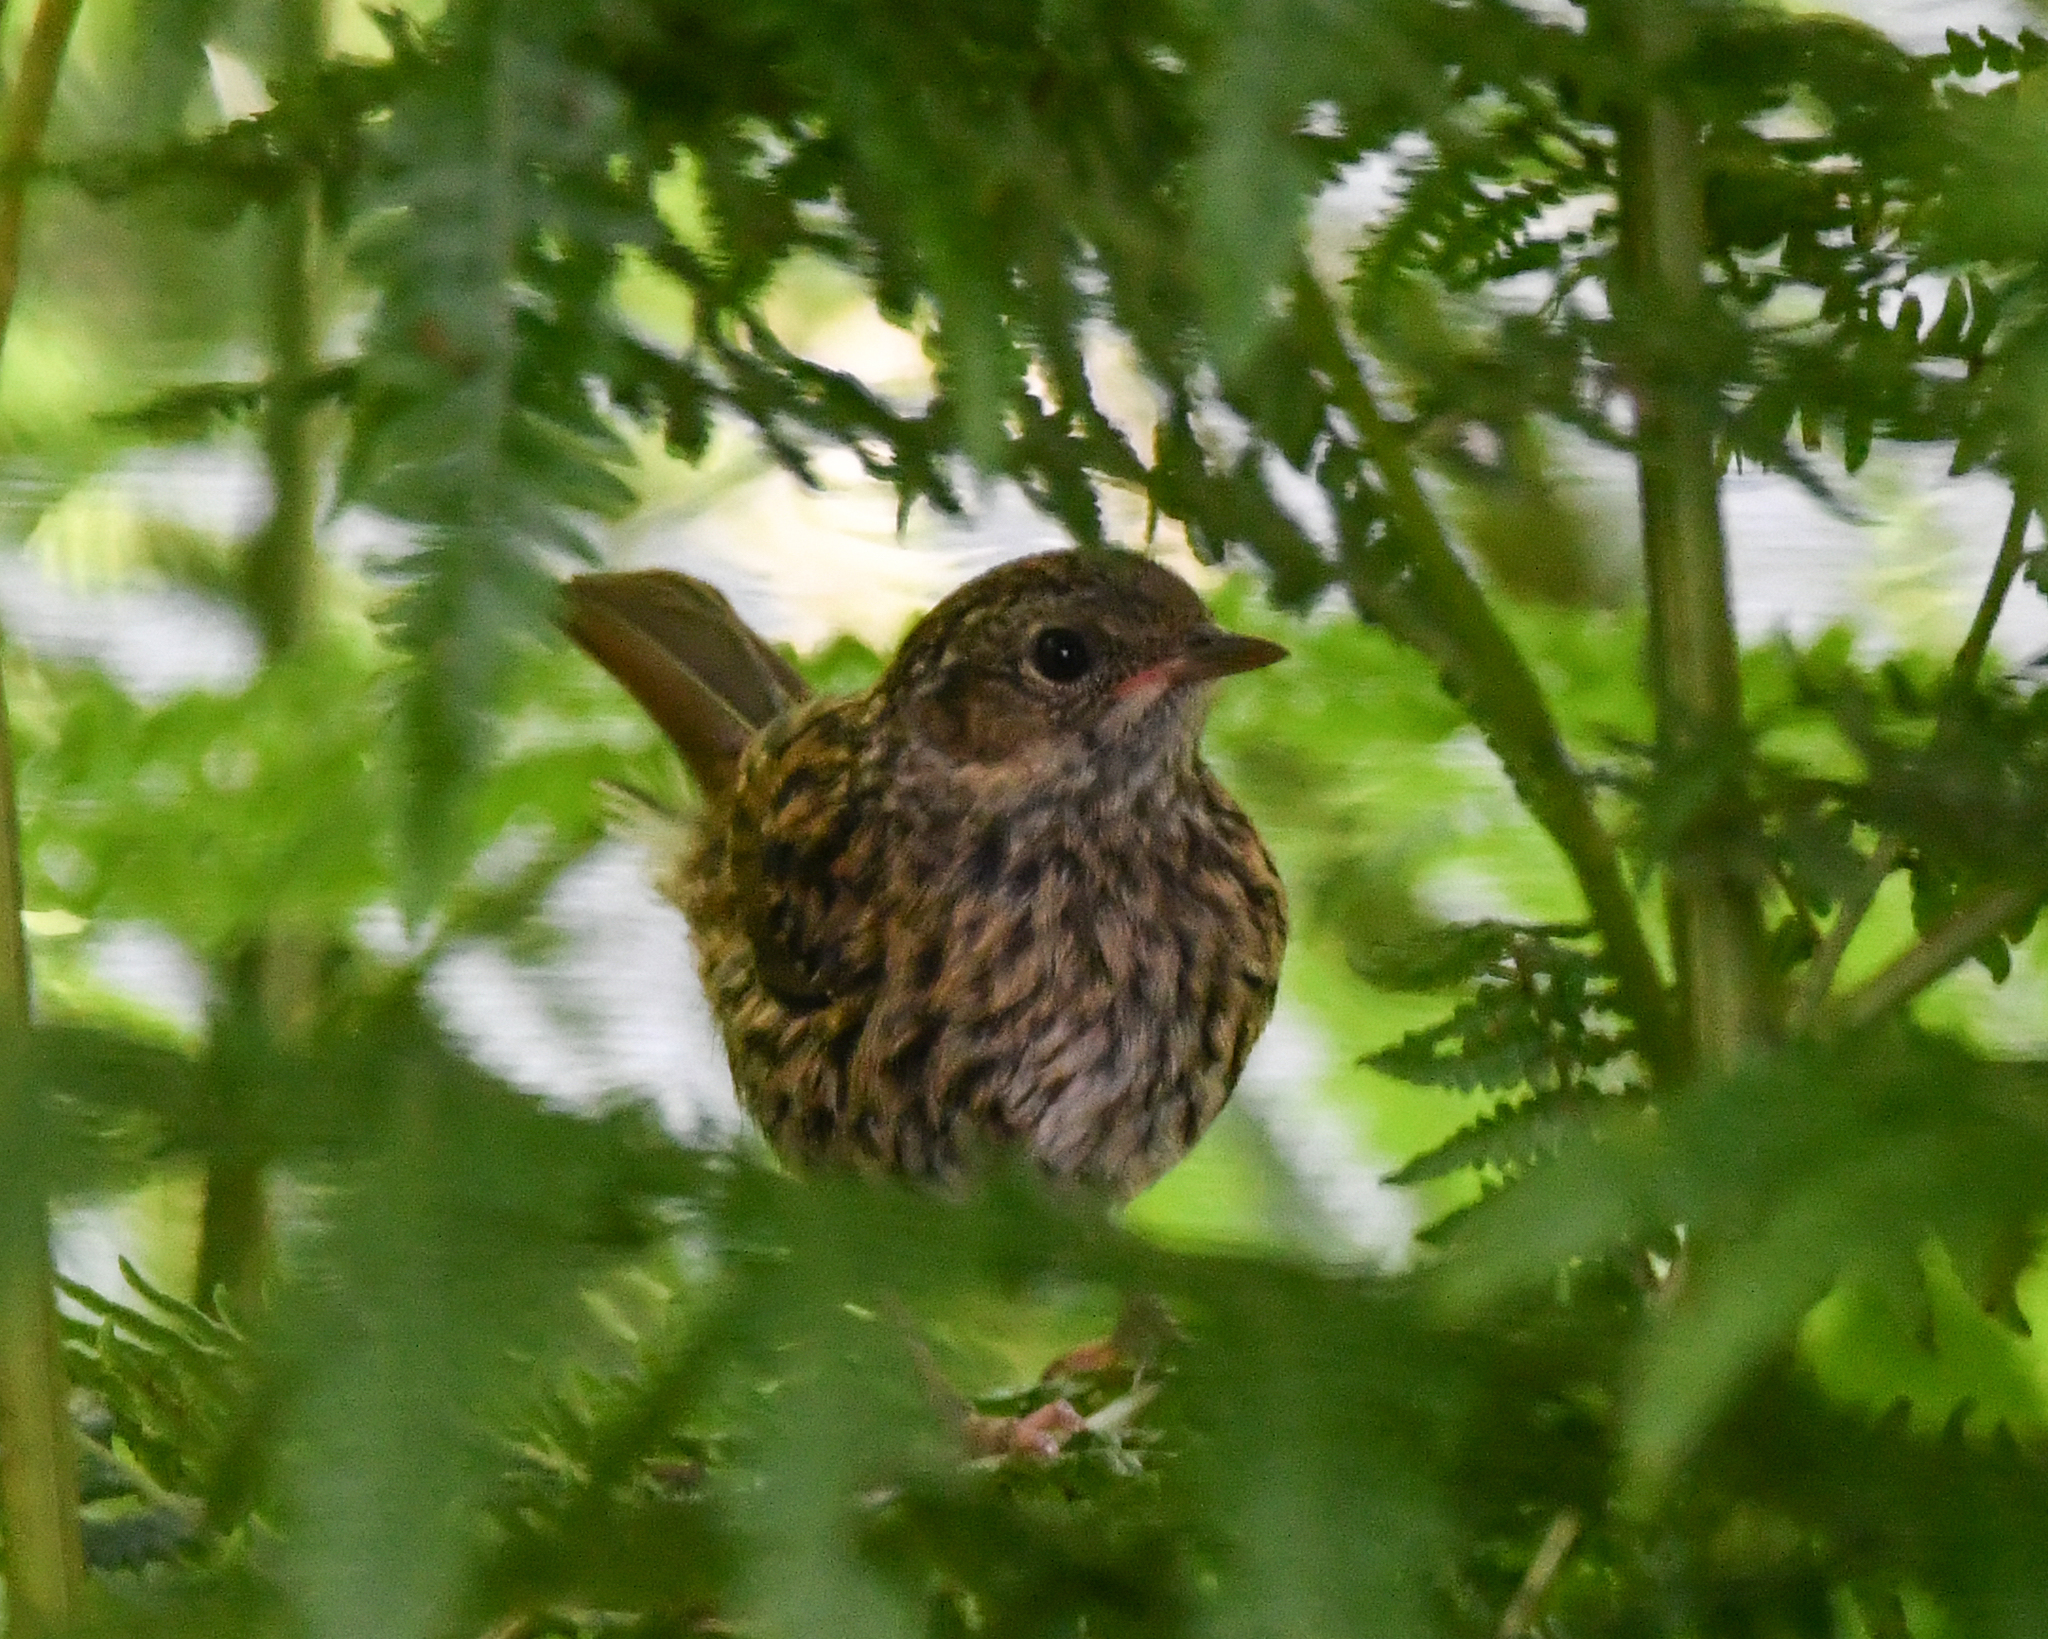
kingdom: Animalia
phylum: Chordata
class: Aves
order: Passeriformes
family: Prunellidae
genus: Prunella
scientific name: Prunella modularis
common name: Dunnock
